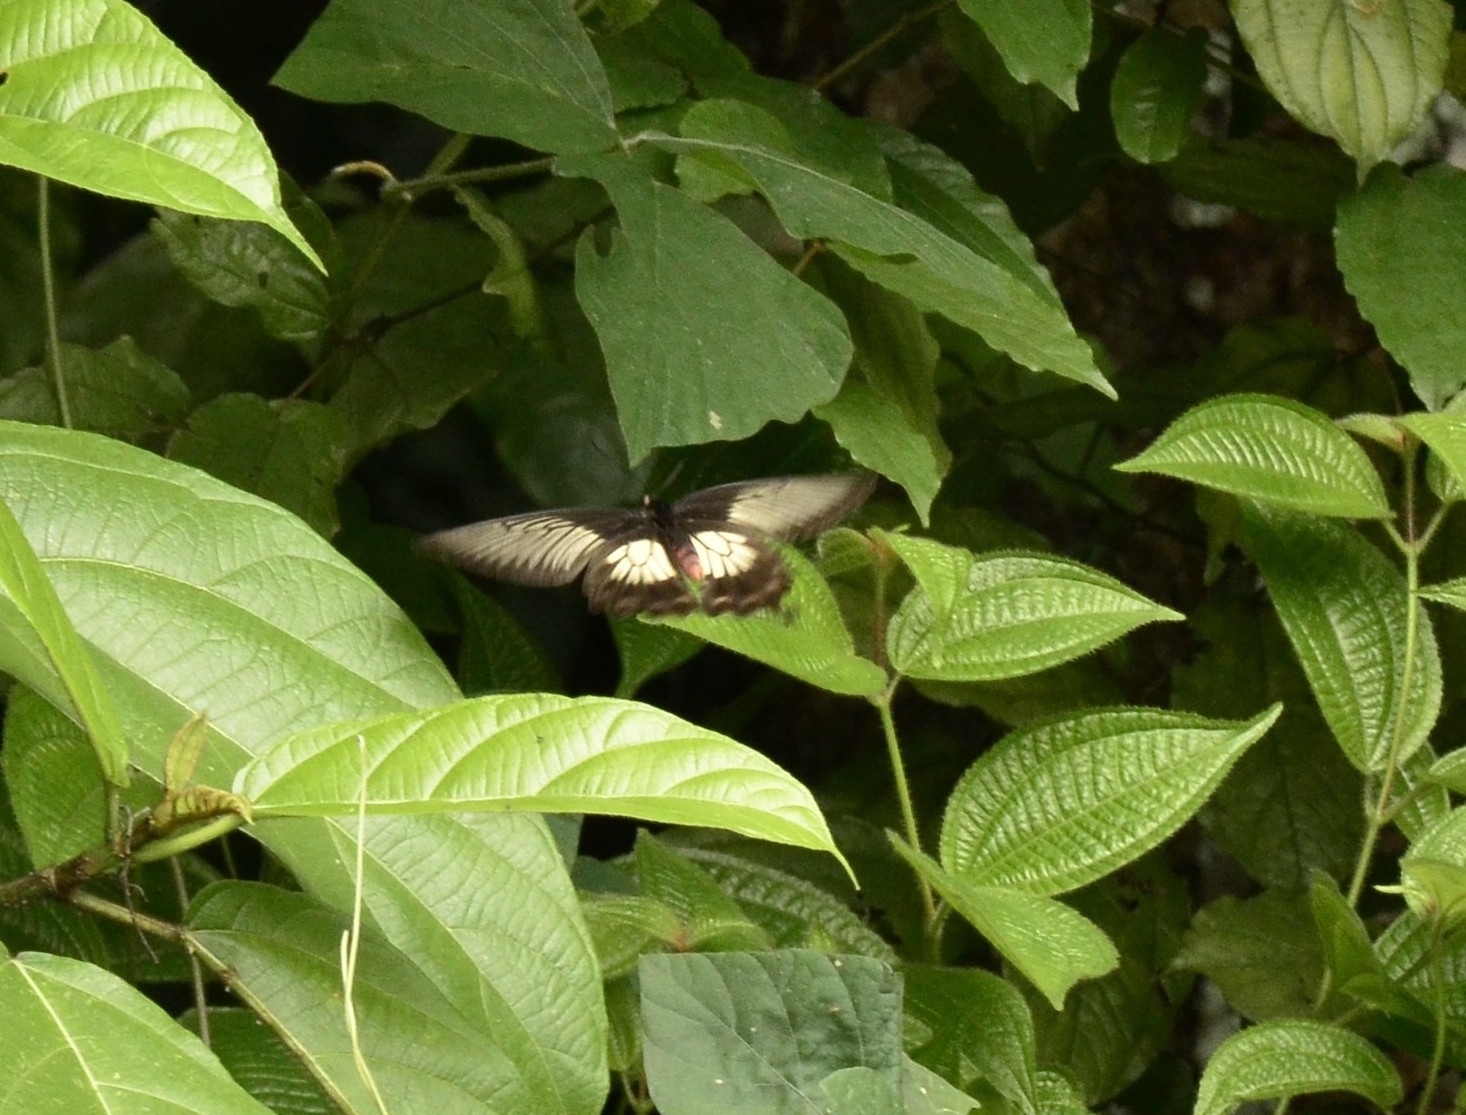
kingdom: Animalia
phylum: Arthropoda
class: Insecta
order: Lepidoptera
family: Papilionidae
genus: Pachliopta
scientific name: Pachliopta pandiyana
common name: Malabar rose
